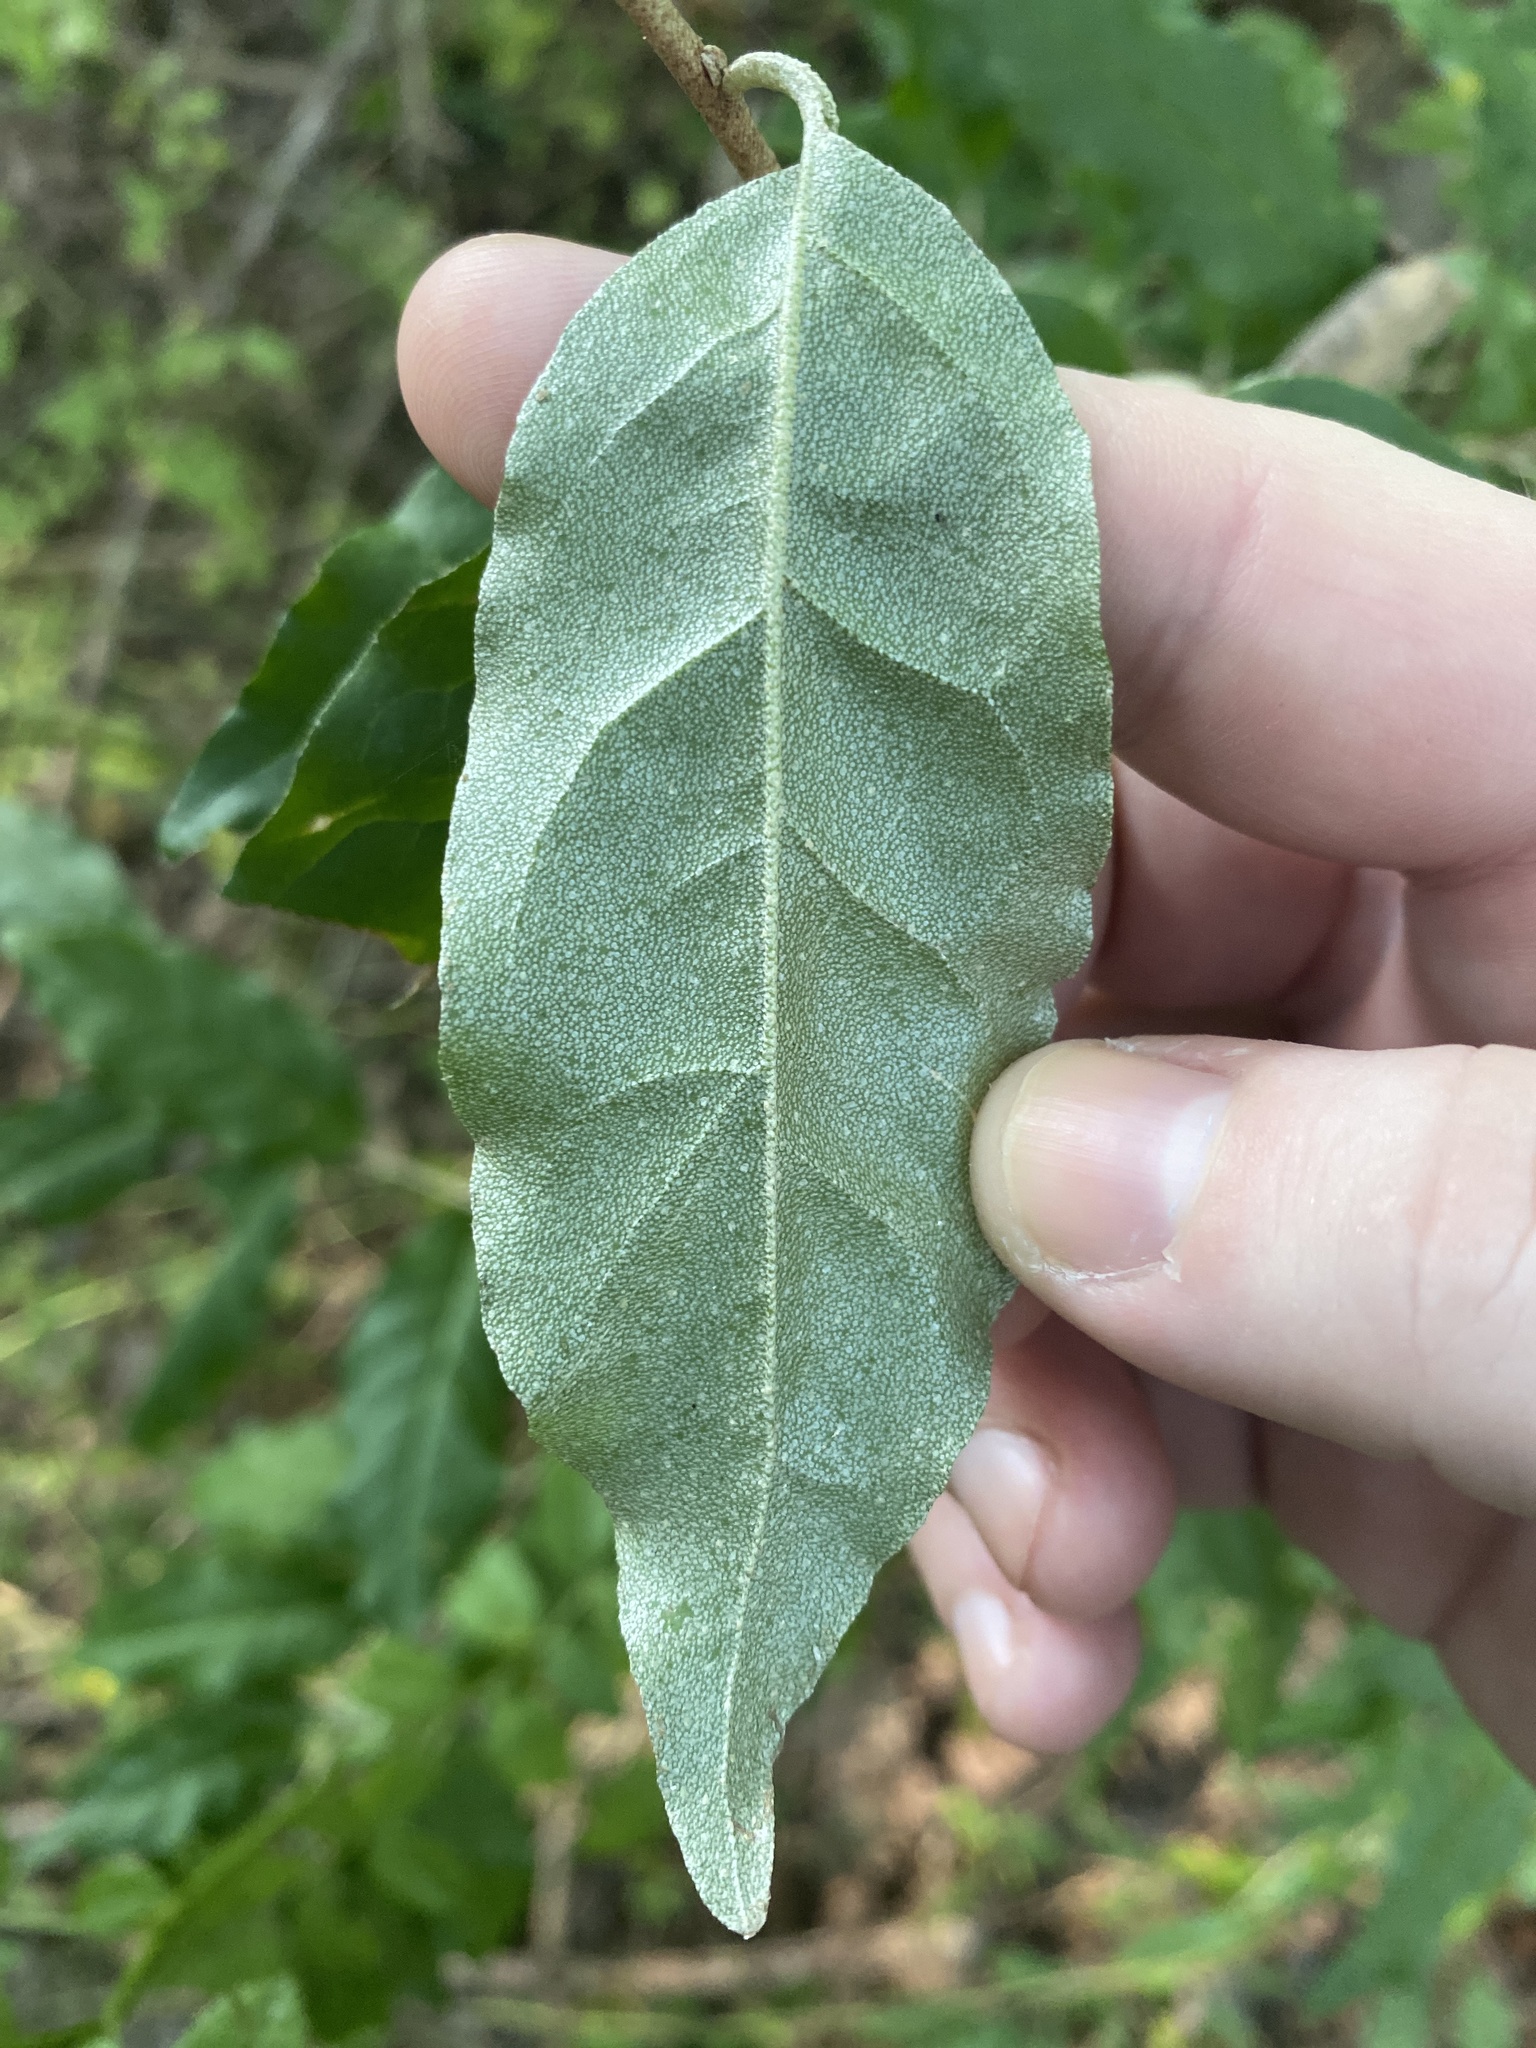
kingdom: Plantae
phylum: Tracheophyta
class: Magnoliopsida
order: Rosales
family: Elaeagnaceae
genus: Elaeagnus
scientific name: Elaeagnus umbellata
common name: Autumn olive
